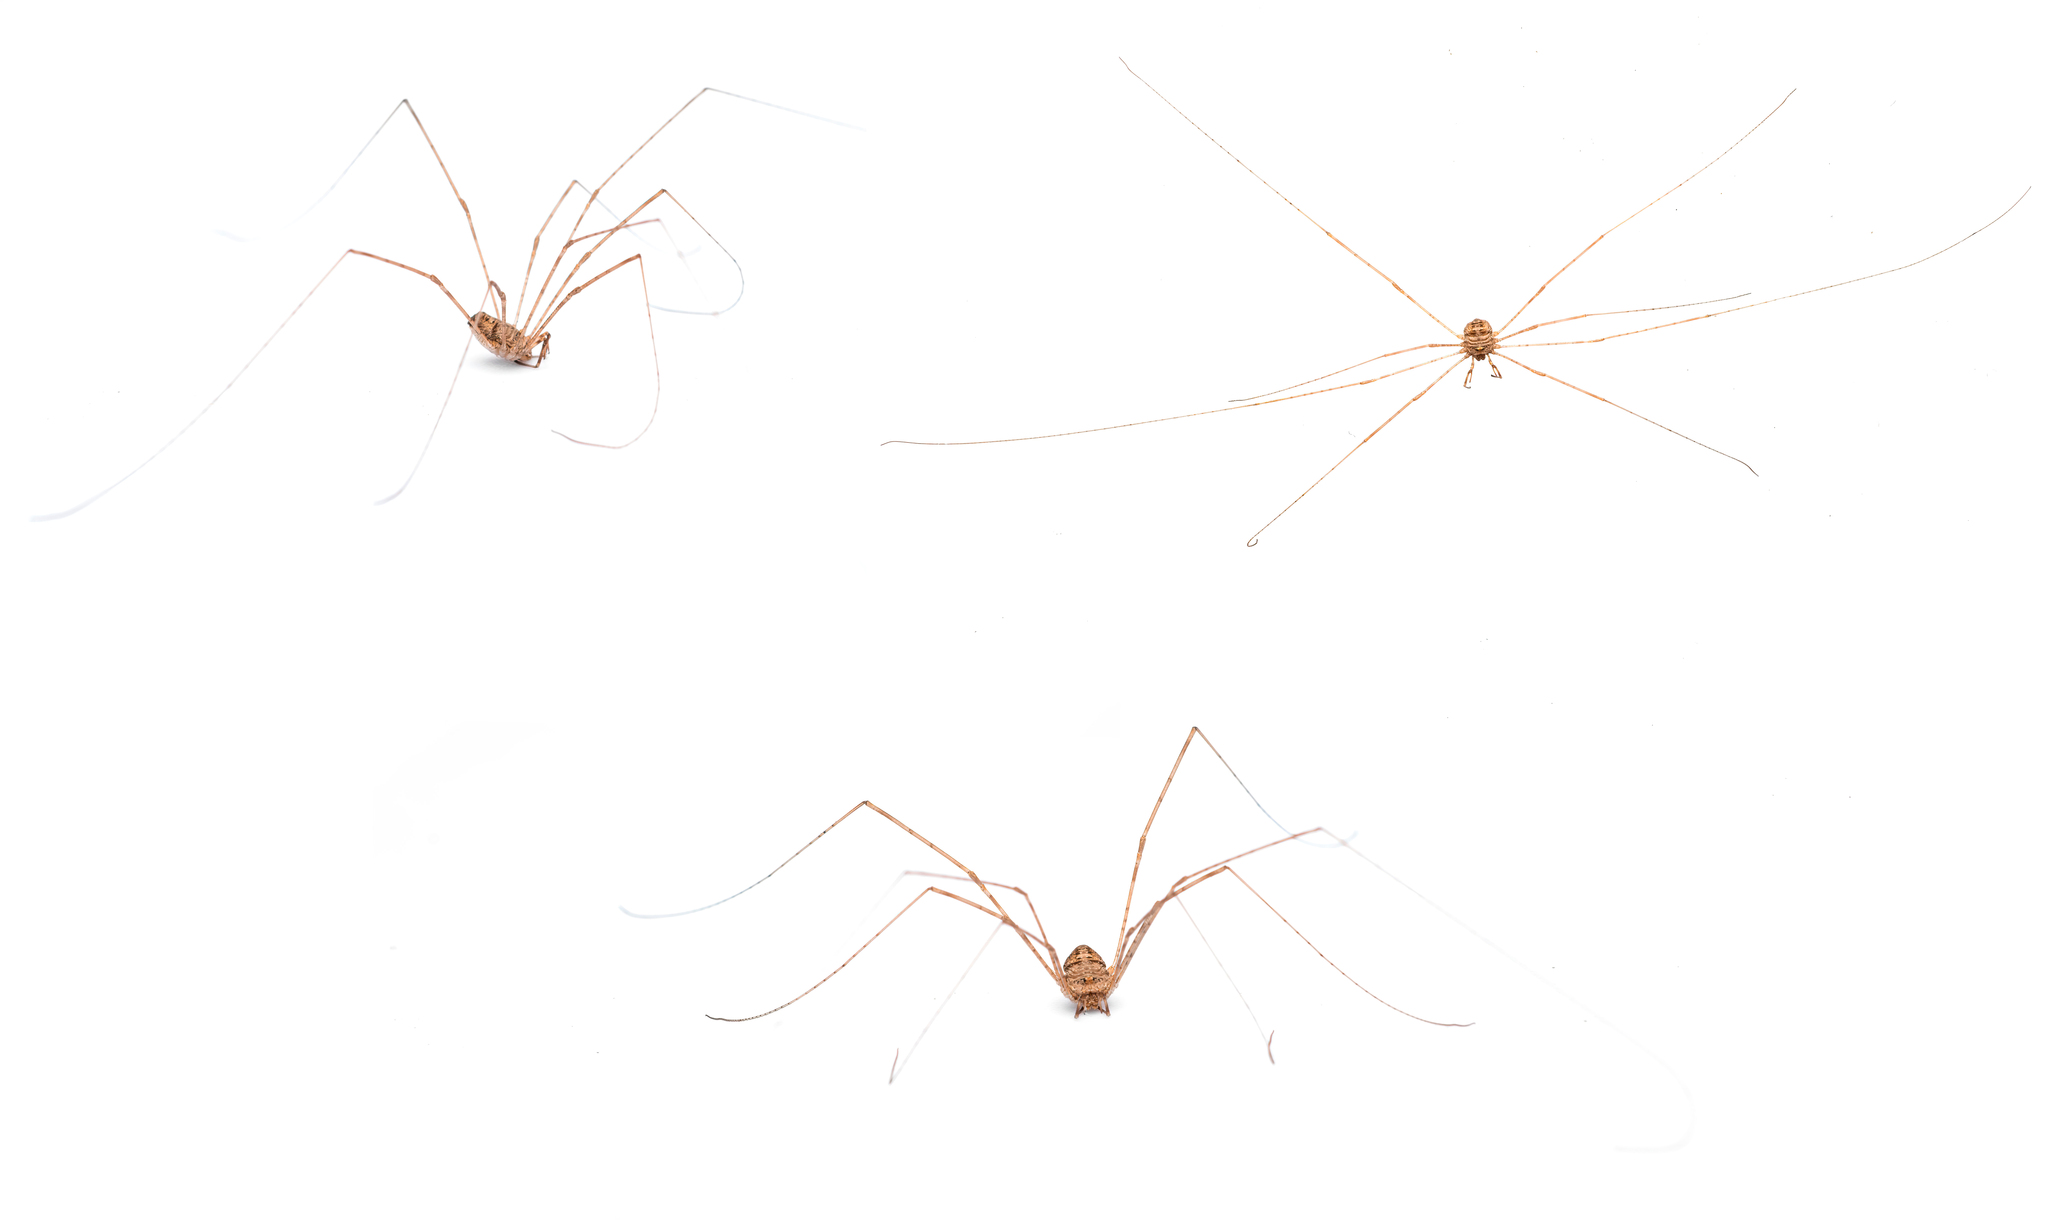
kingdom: Animalia
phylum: Arthropoda
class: Arachnida
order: Opiliones
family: Phalangiidae
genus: Dicranopalpus
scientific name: Dicranopalpus caudatus
